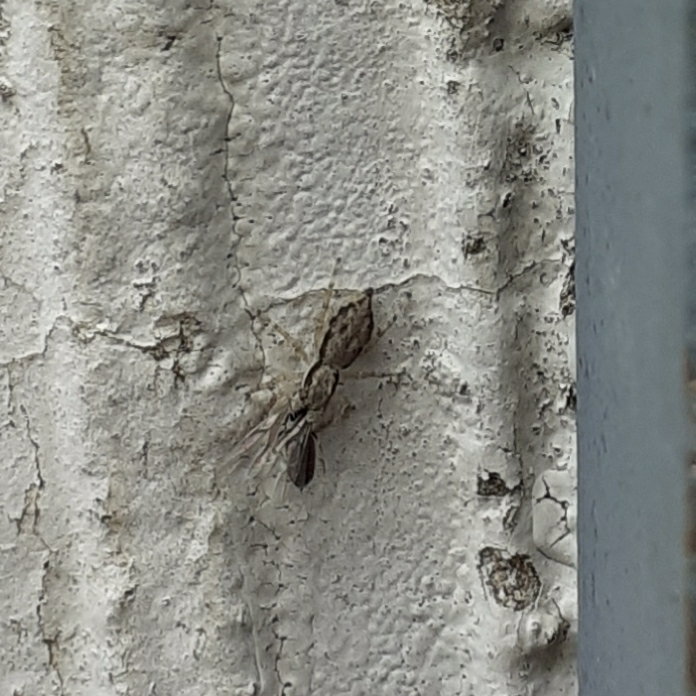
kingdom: Animalia
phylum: Arthropoda
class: Arachnida
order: Araneae
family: Salticidae
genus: Menemerus
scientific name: Menemerus bivittatus
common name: Gray wall jumper
